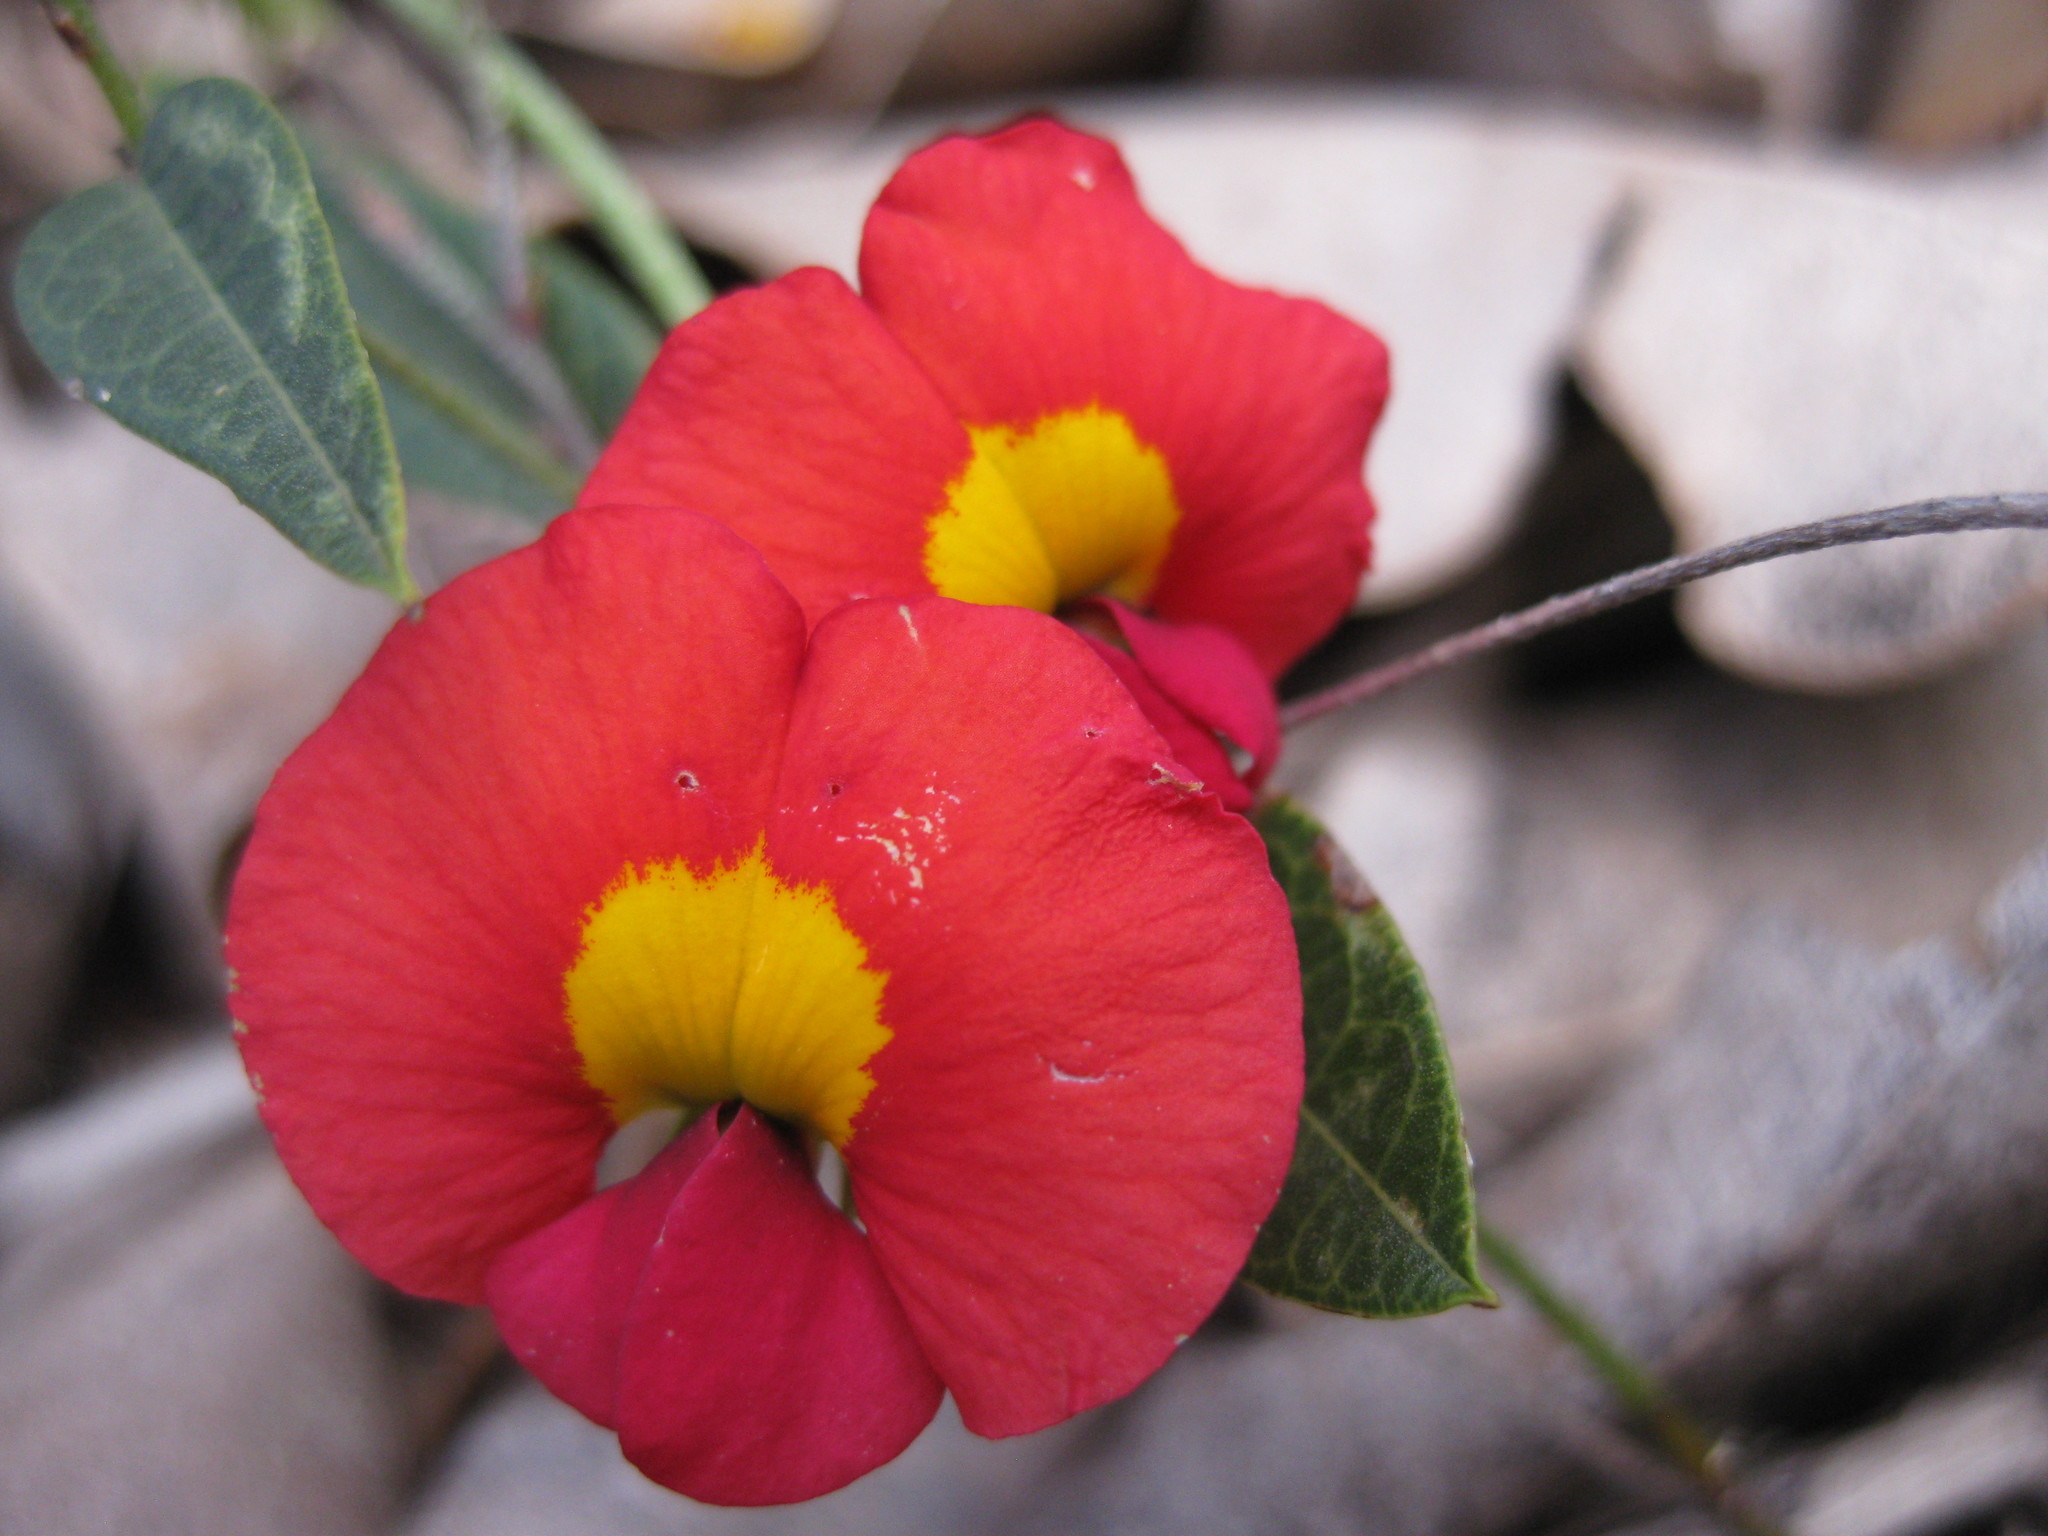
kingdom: Plantae
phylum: Tracheophyta
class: Magnoliopsida
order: Fabales
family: Fabaceae
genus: Chorizema
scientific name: Chorizema rhombeum
